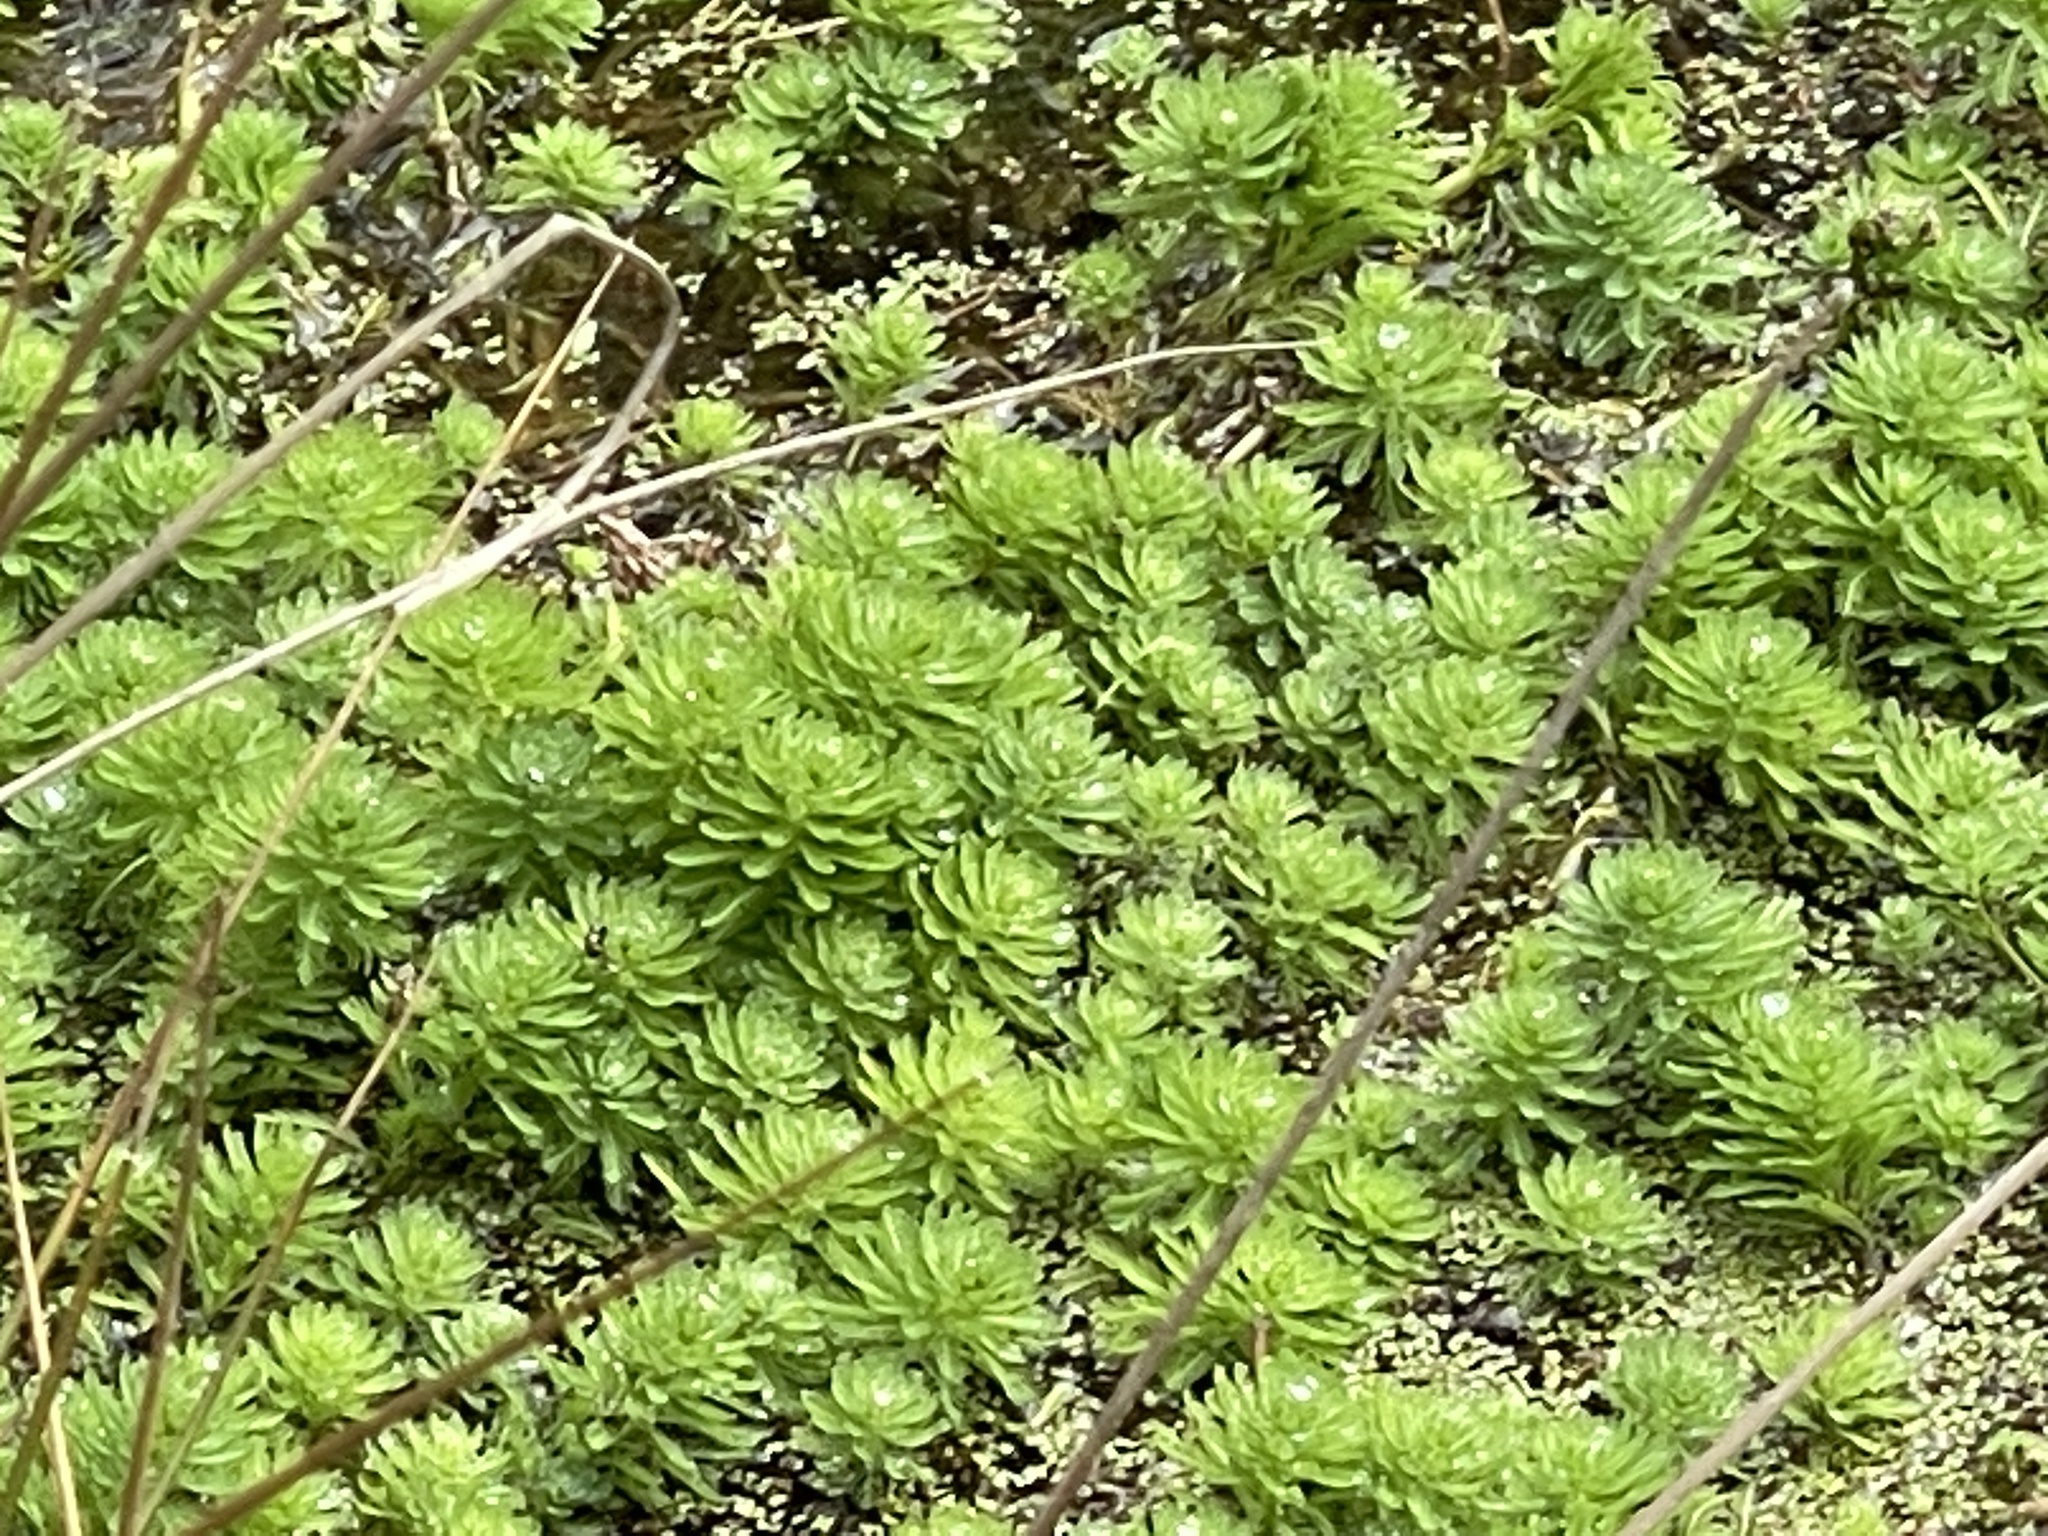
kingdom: Plantae
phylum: Tracheophyta
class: Magnoliopsida
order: Saxifragales
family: Haloragaceae
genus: Myriophyllum
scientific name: Myriophyllum aquaticum
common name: Parrot's feather
